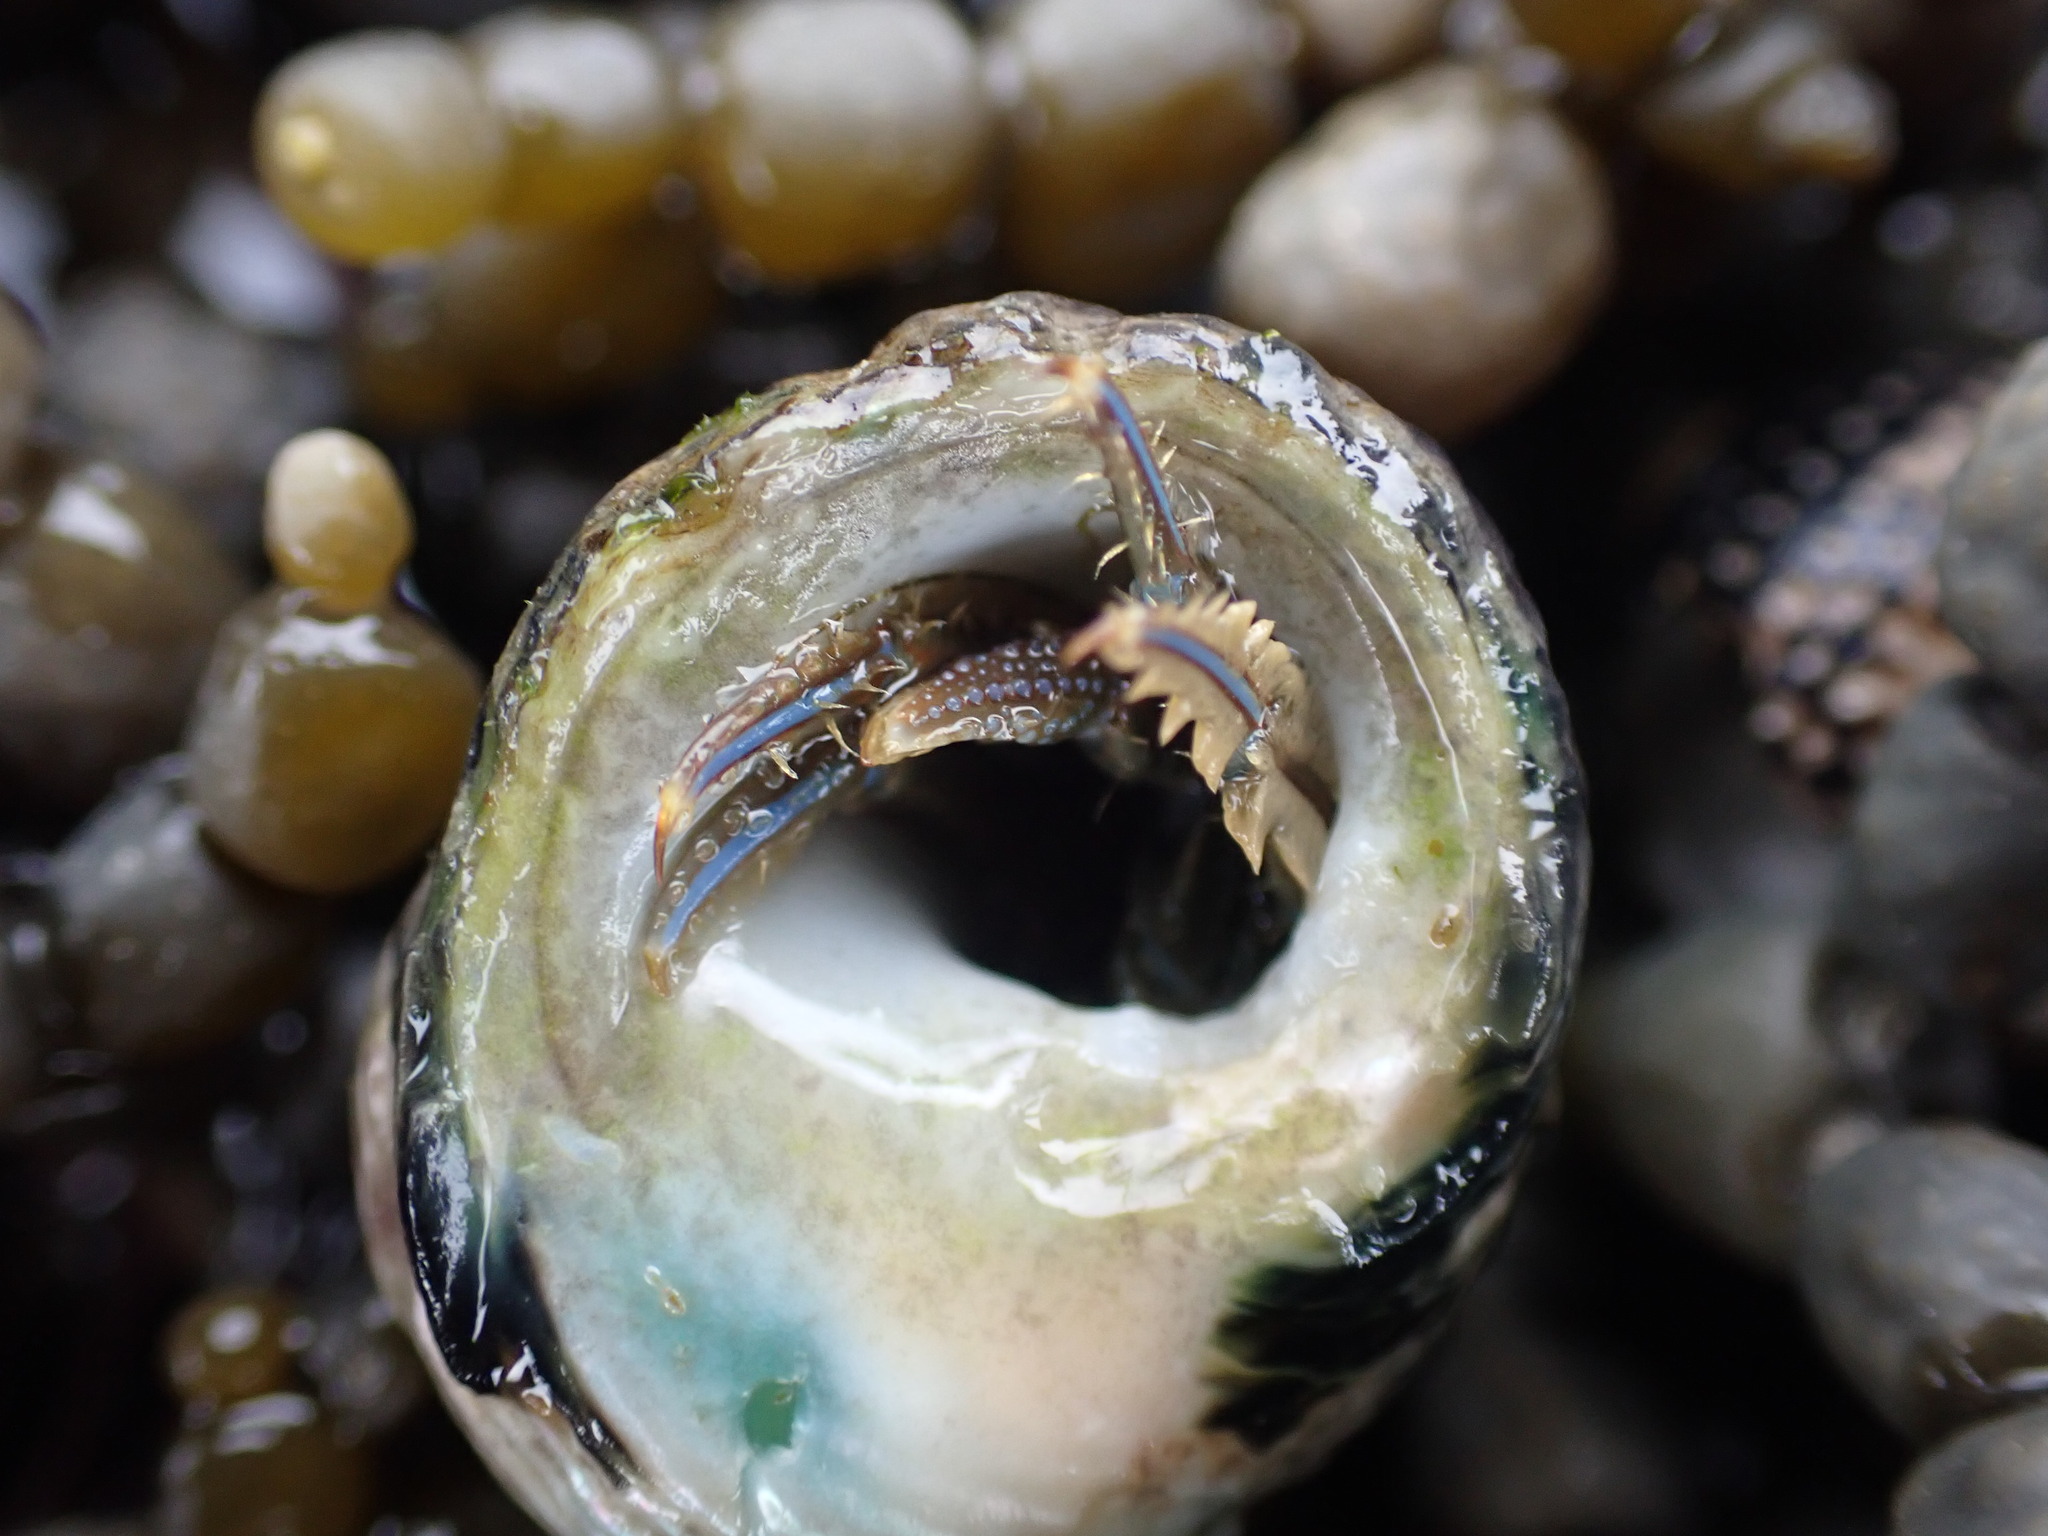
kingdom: Animalia
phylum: Arthropoda
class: Malacostraca
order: Decapoda
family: Paguridae
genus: Pagurus
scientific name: Pagurus novizealandiae
